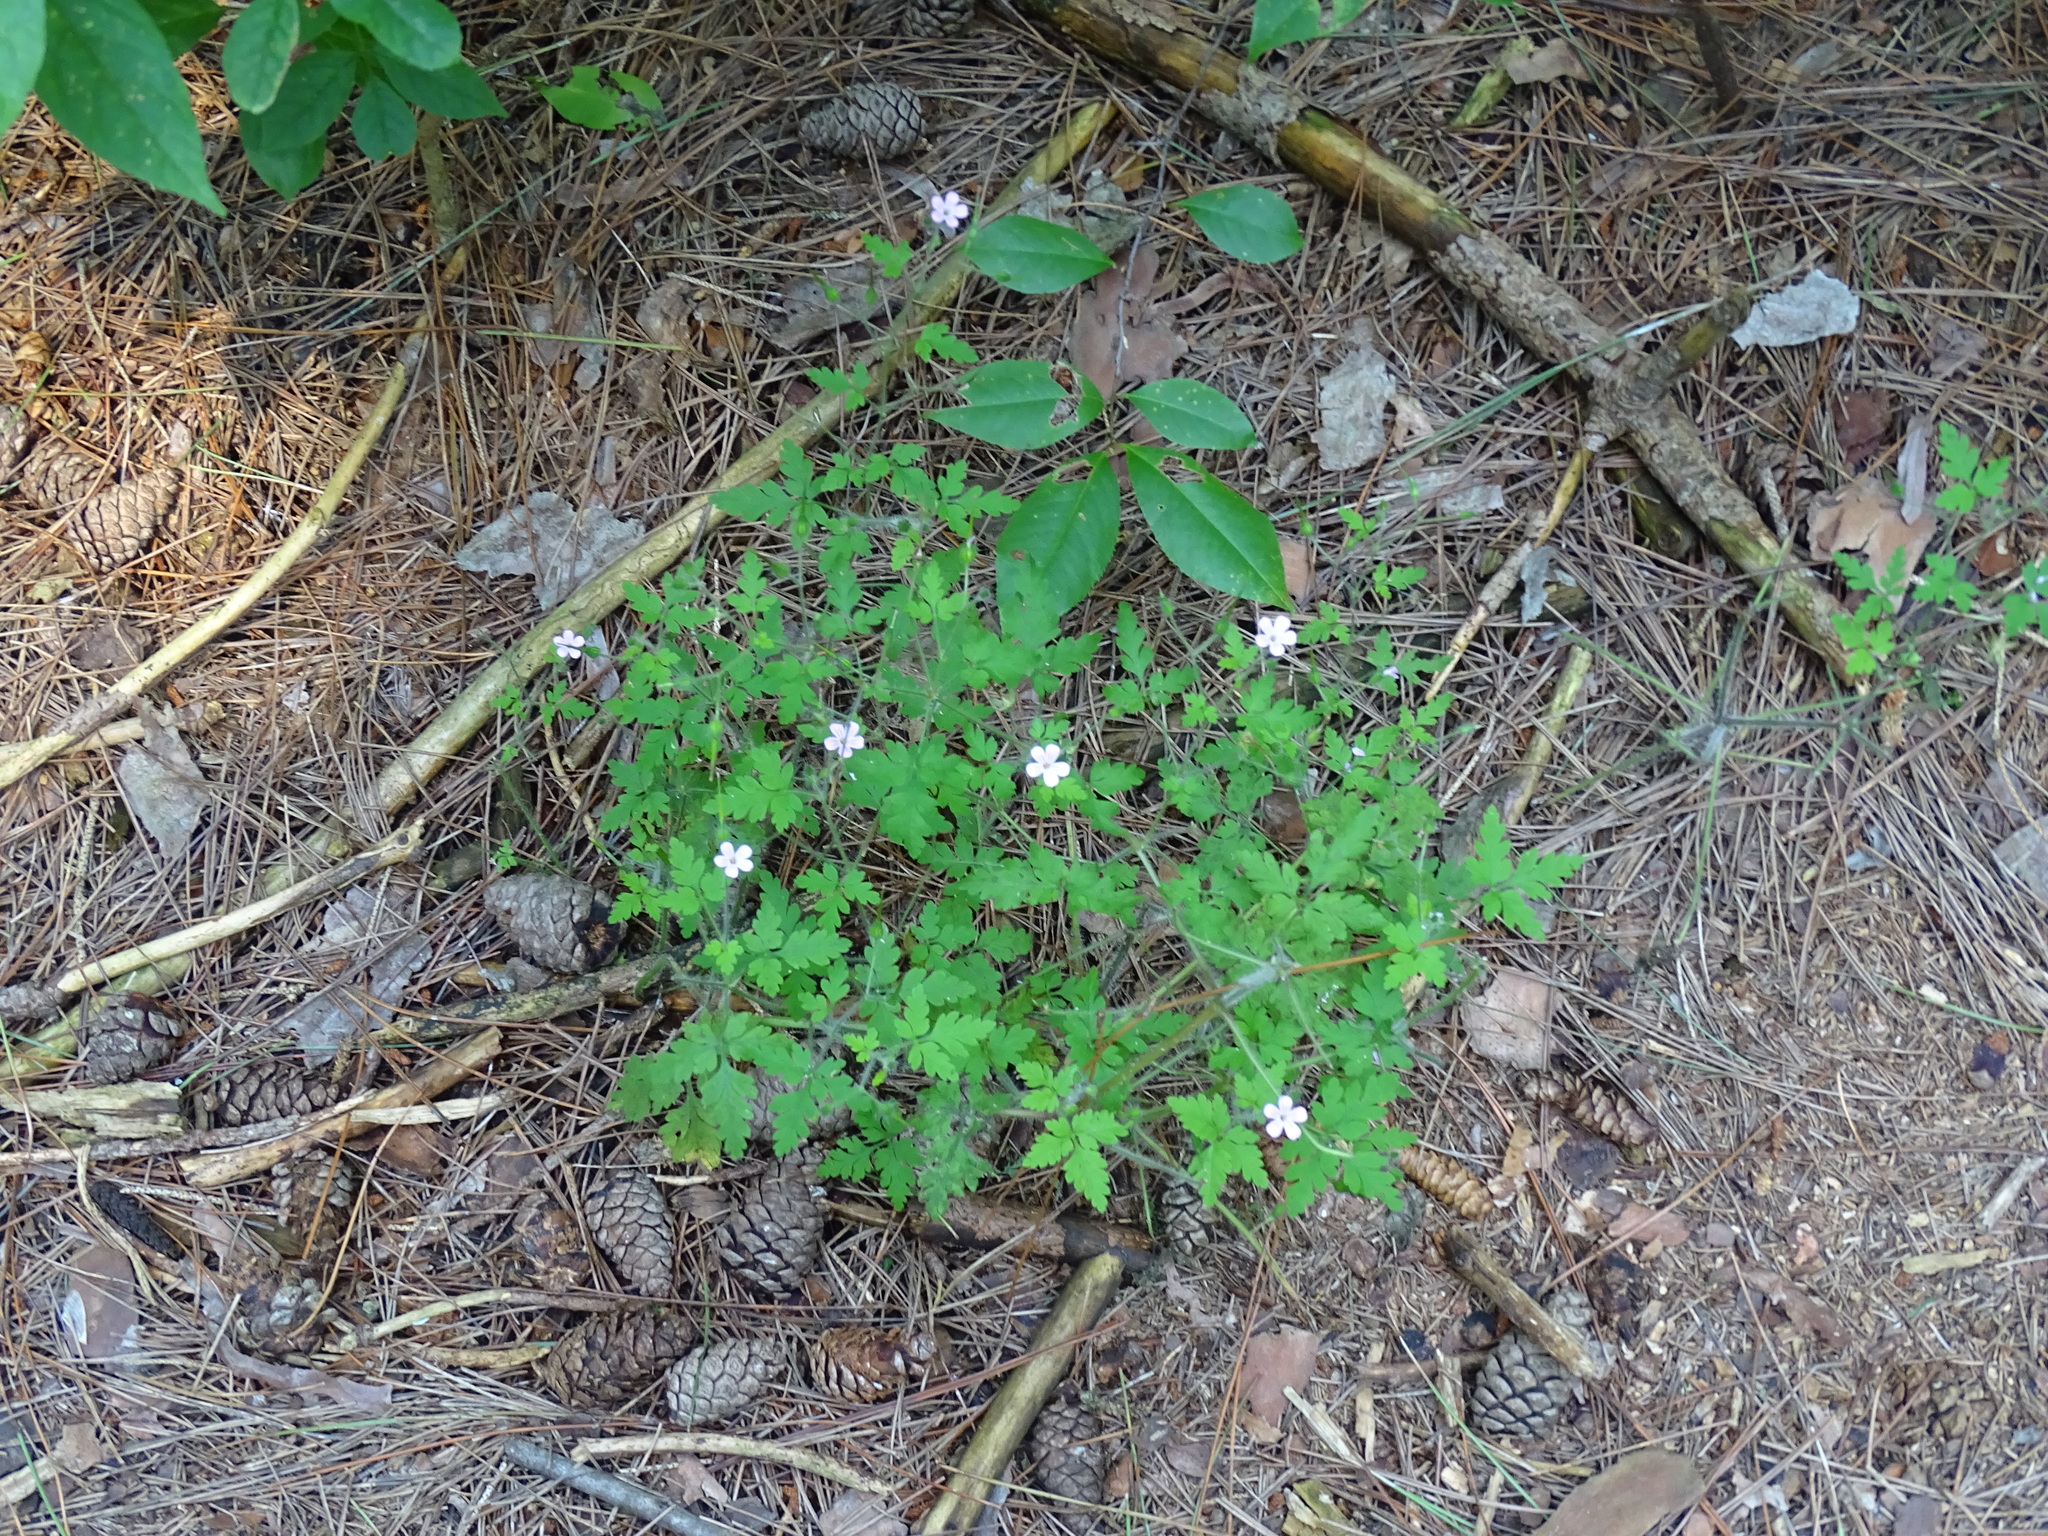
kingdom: Plantae
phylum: Tracheophyta
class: Magnoliopsida
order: Geraniales
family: Geraniaceae
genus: Geranium
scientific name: Geranium robertianum
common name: Herb-robert
